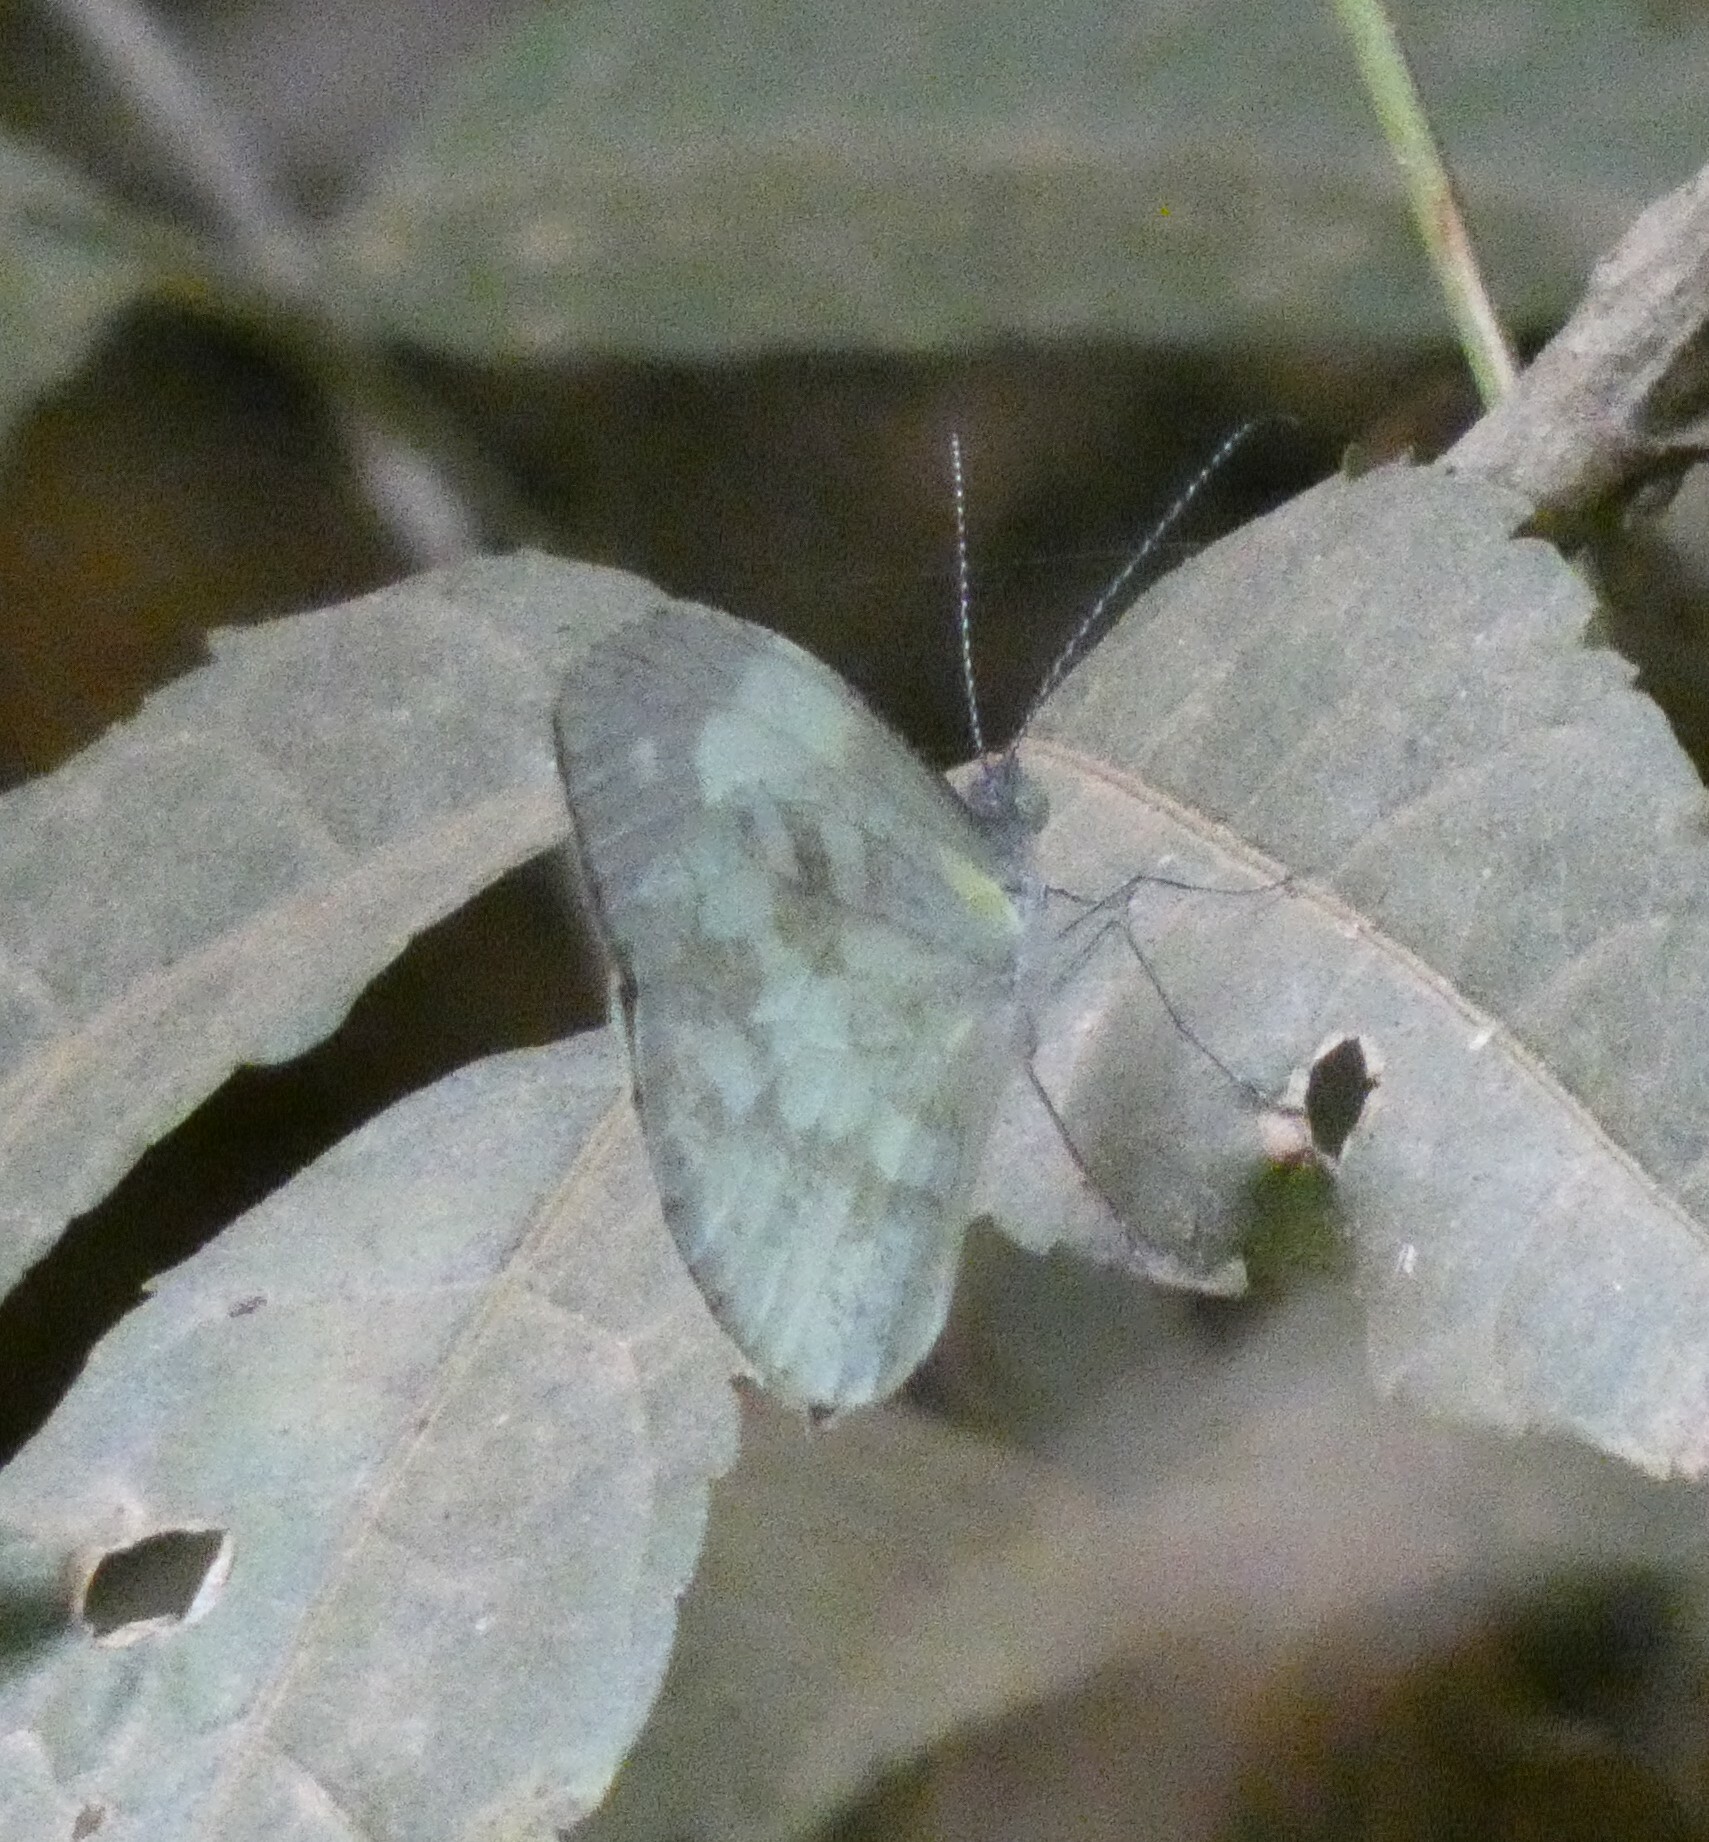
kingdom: Animalia
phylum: Arthropoda
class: Insecta
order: Lepidoptera
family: Pieridae
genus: Dismorphia
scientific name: Dismorphia thermesia
